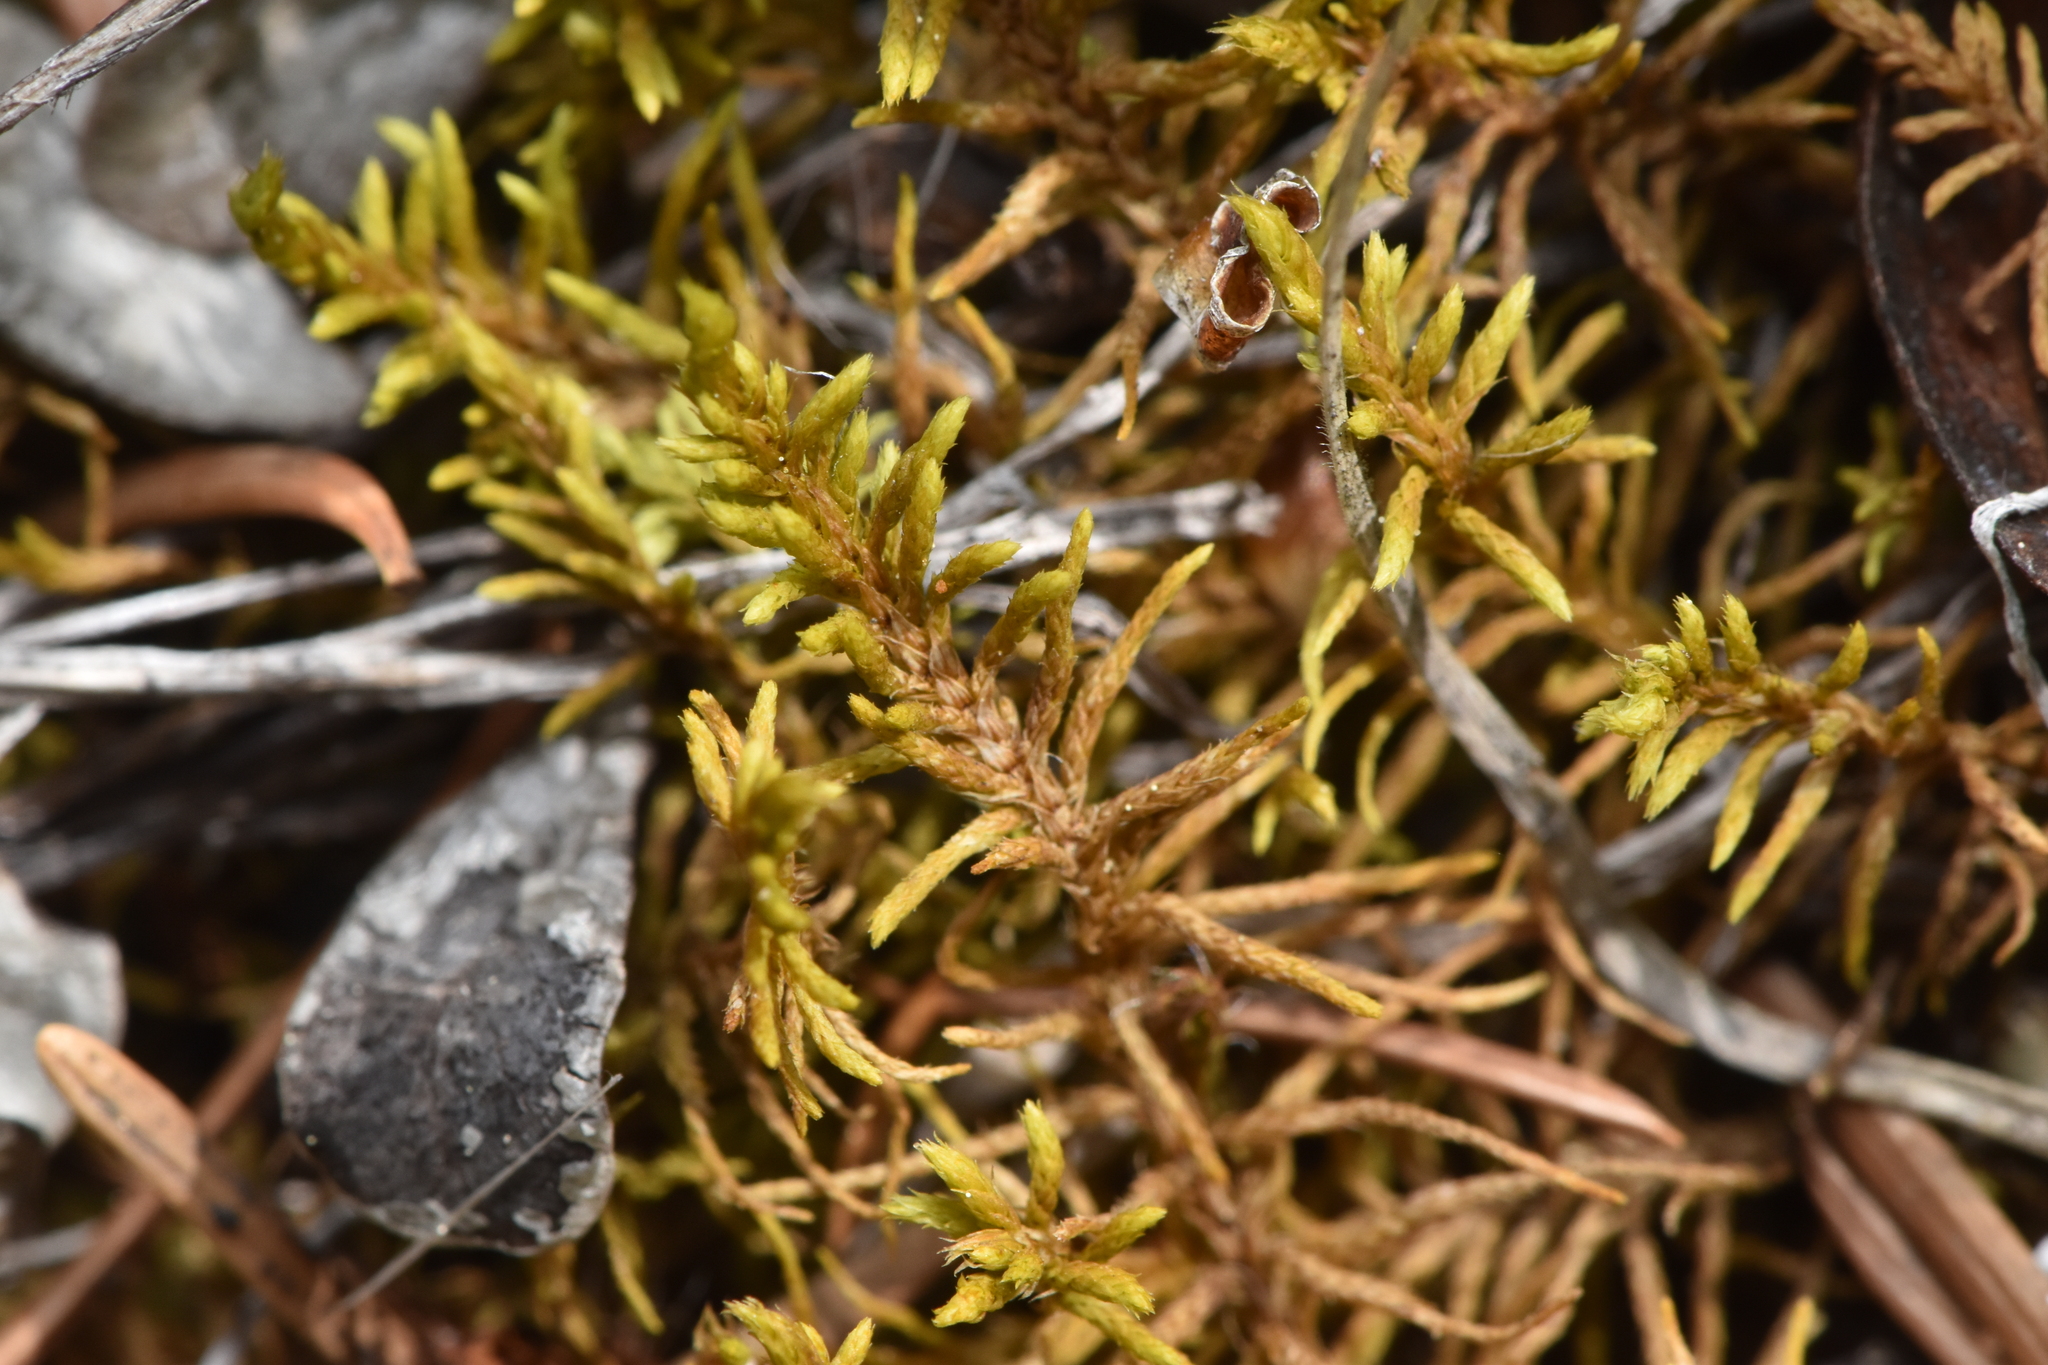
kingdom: Plantae
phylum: Bryophyta
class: Bryopsida
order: Hypnales
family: Thuidiaceae
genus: Abietinella
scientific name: Abietinella abietina
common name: Wiry fern moss
